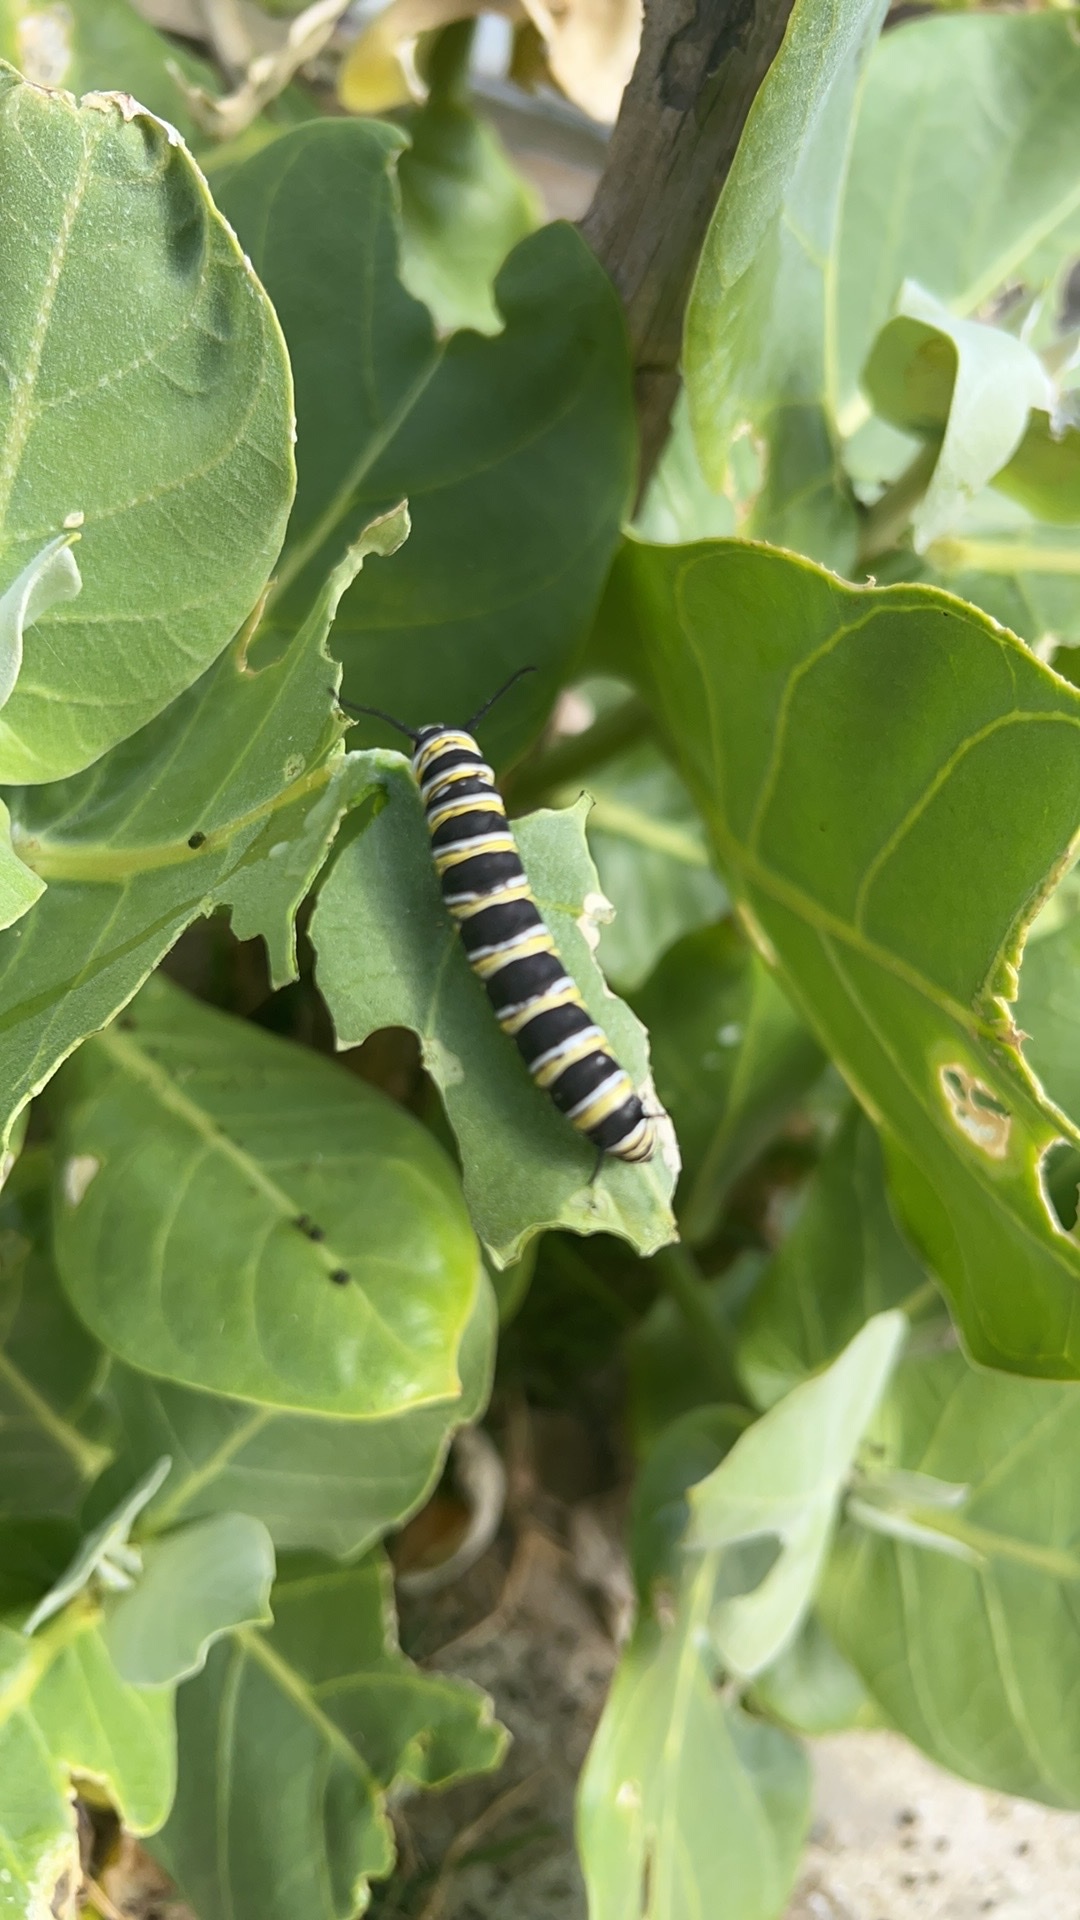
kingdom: Animalia
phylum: Arthropoda
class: Insecta
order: Lepidoptera
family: Nymphalidae
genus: Danaus
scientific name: Danaus plexippus
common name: Monarch
